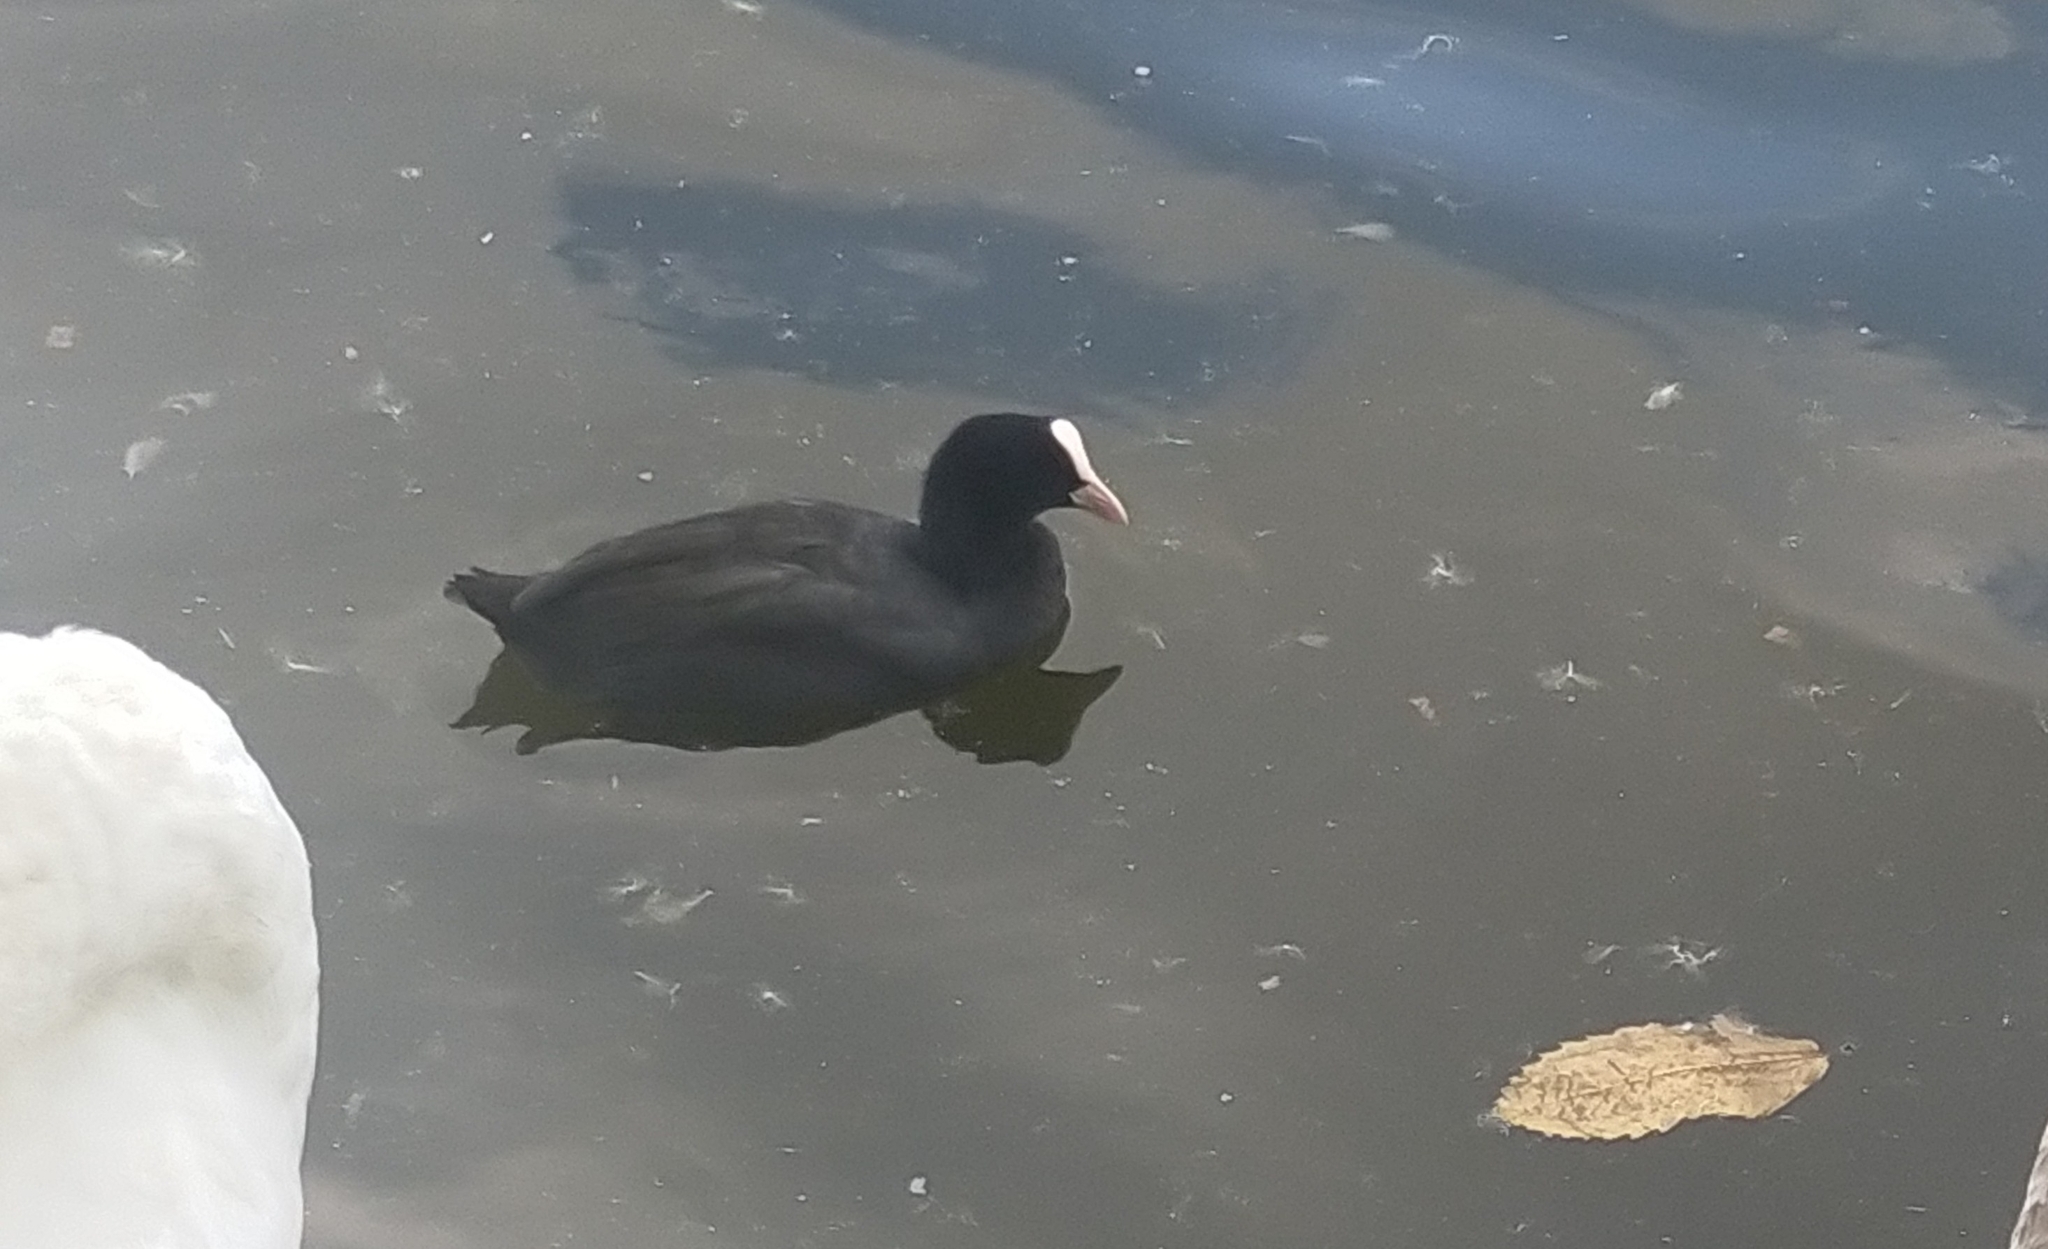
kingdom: Animalia
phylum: Chordata
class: Aves
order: Gruiformes
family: Rallidae
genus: Fulica
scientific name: Fulica atra
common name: Eurasian coot
